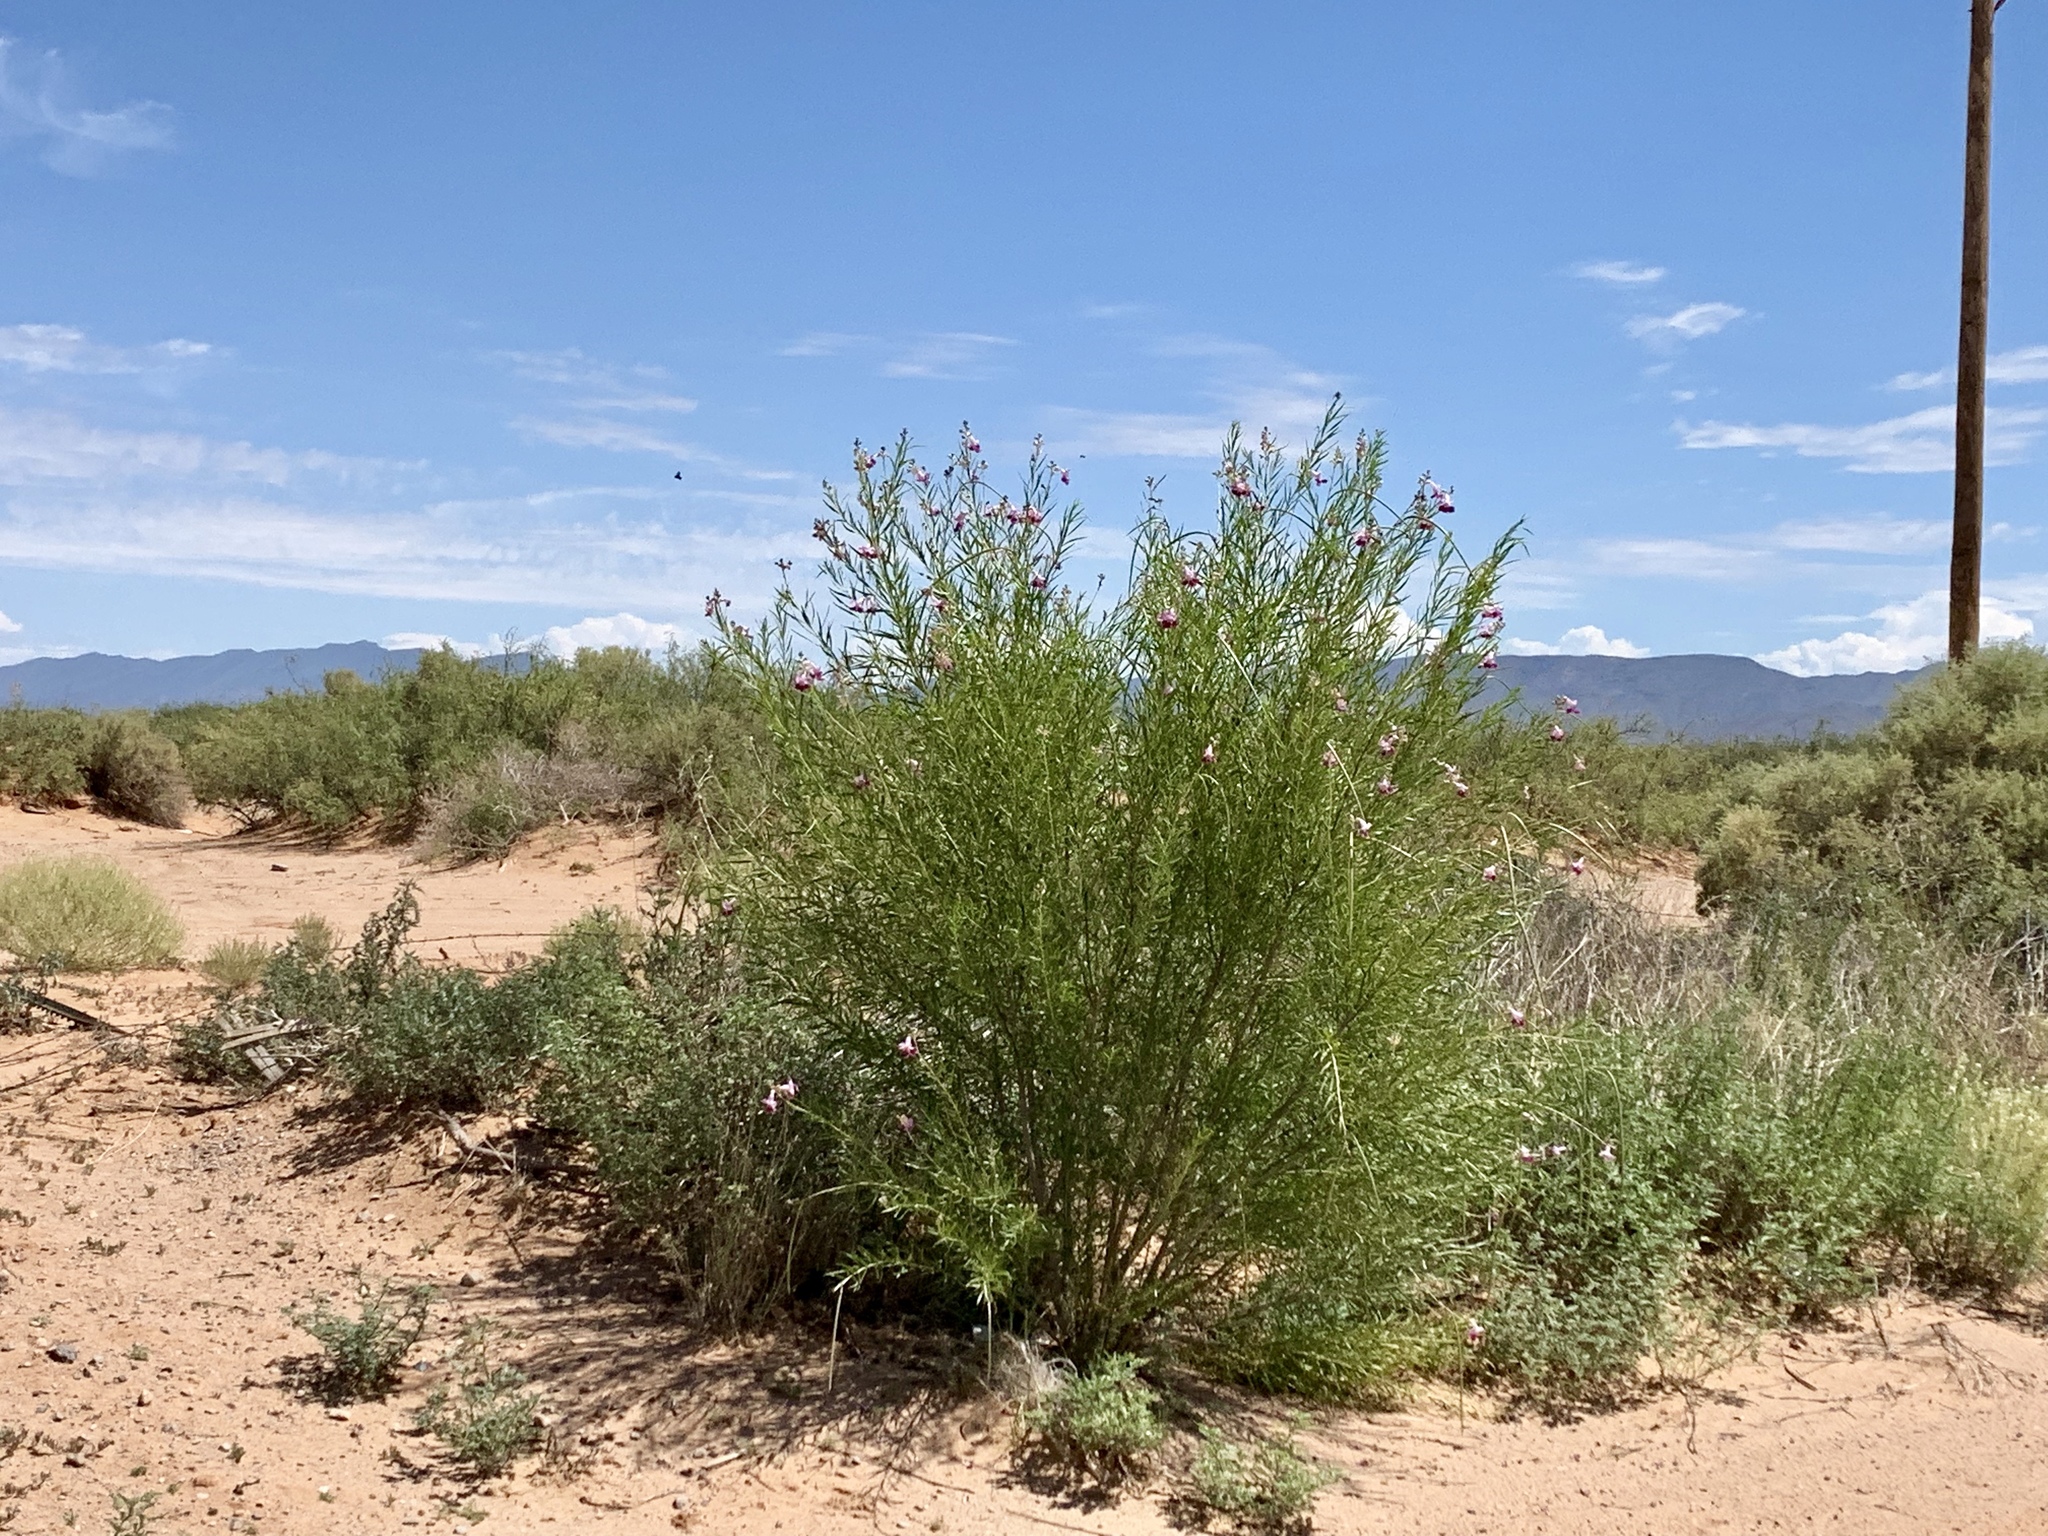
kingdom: Plantae
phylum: Tracheophyta
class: Magnoliopsida
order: Lamiales
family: Bignoniaceae
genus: Chilopsis
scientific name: Chilopsis linearis
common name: Desert-willow
